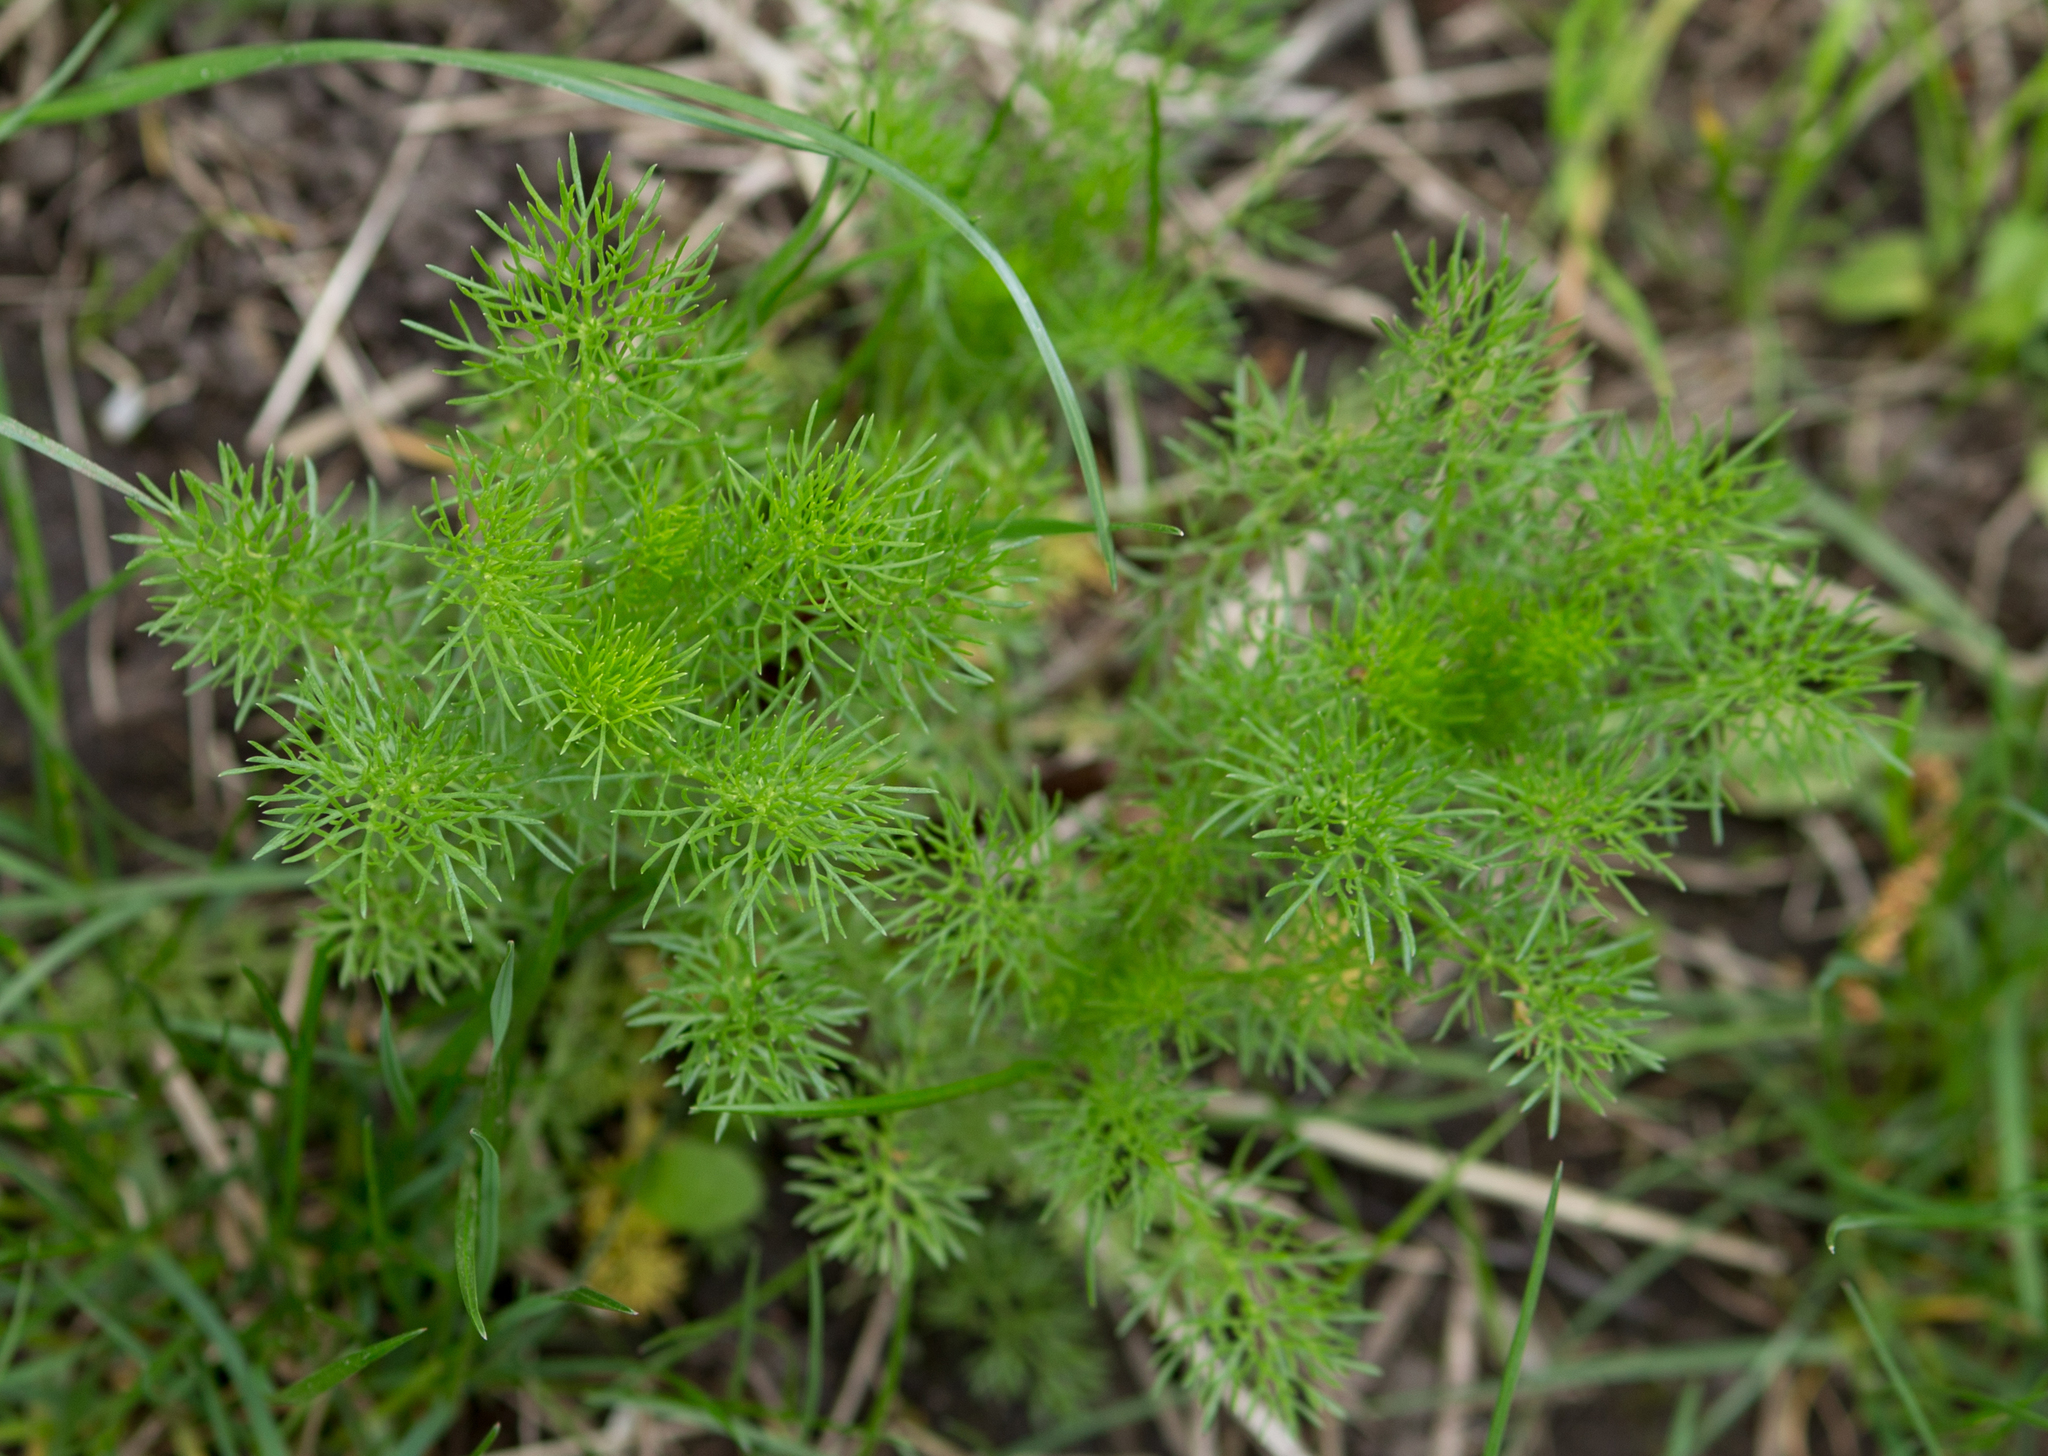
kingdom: Plantae
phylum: Tracheophyta
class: Magnoliopsida
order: Asterales
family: Asteraceae
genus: Tripleurospermum
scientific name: Tripleurospermum inodorum
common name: Scentless mayweed
